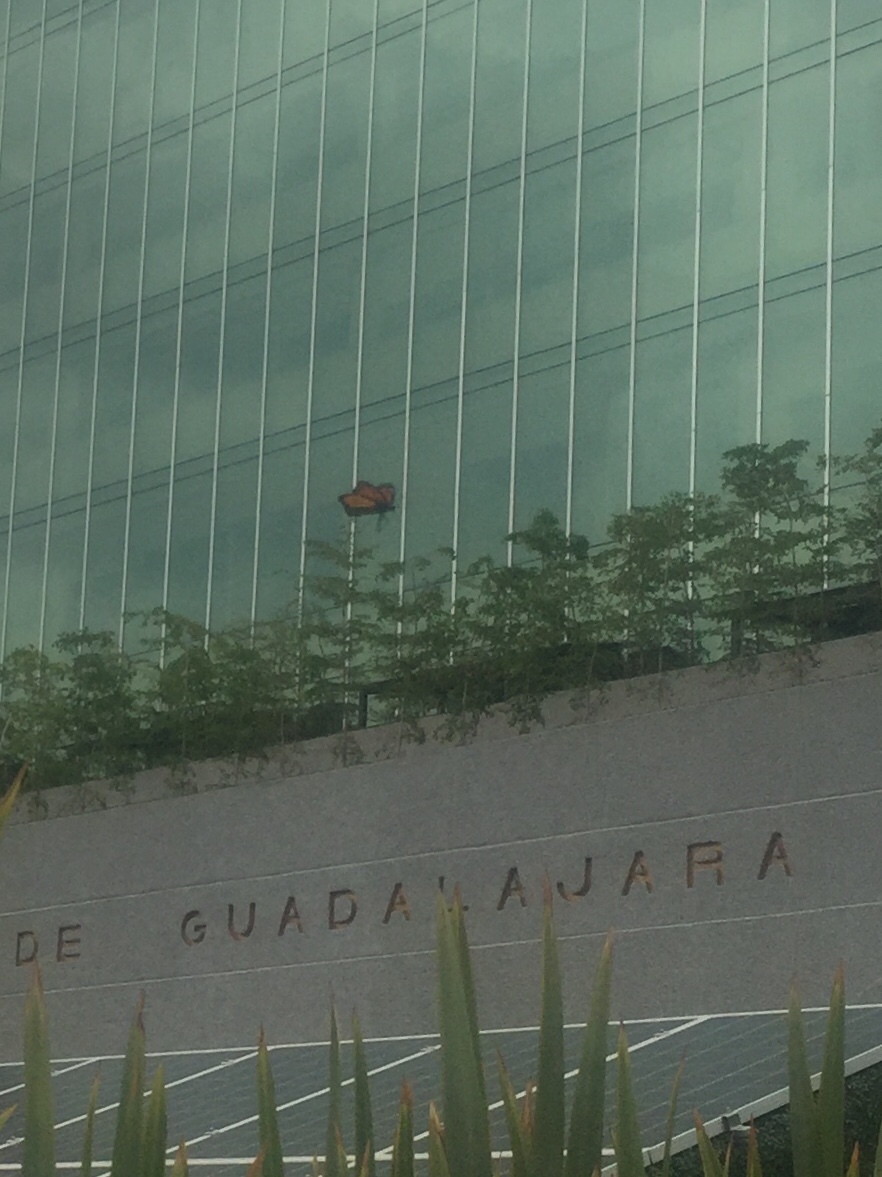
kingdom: Animalia
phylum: Arthropoda
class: Insecta
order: Lepidoptera
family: Nymphalidae
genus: Danaus
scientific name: Danaus plexippus
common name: Monarch
